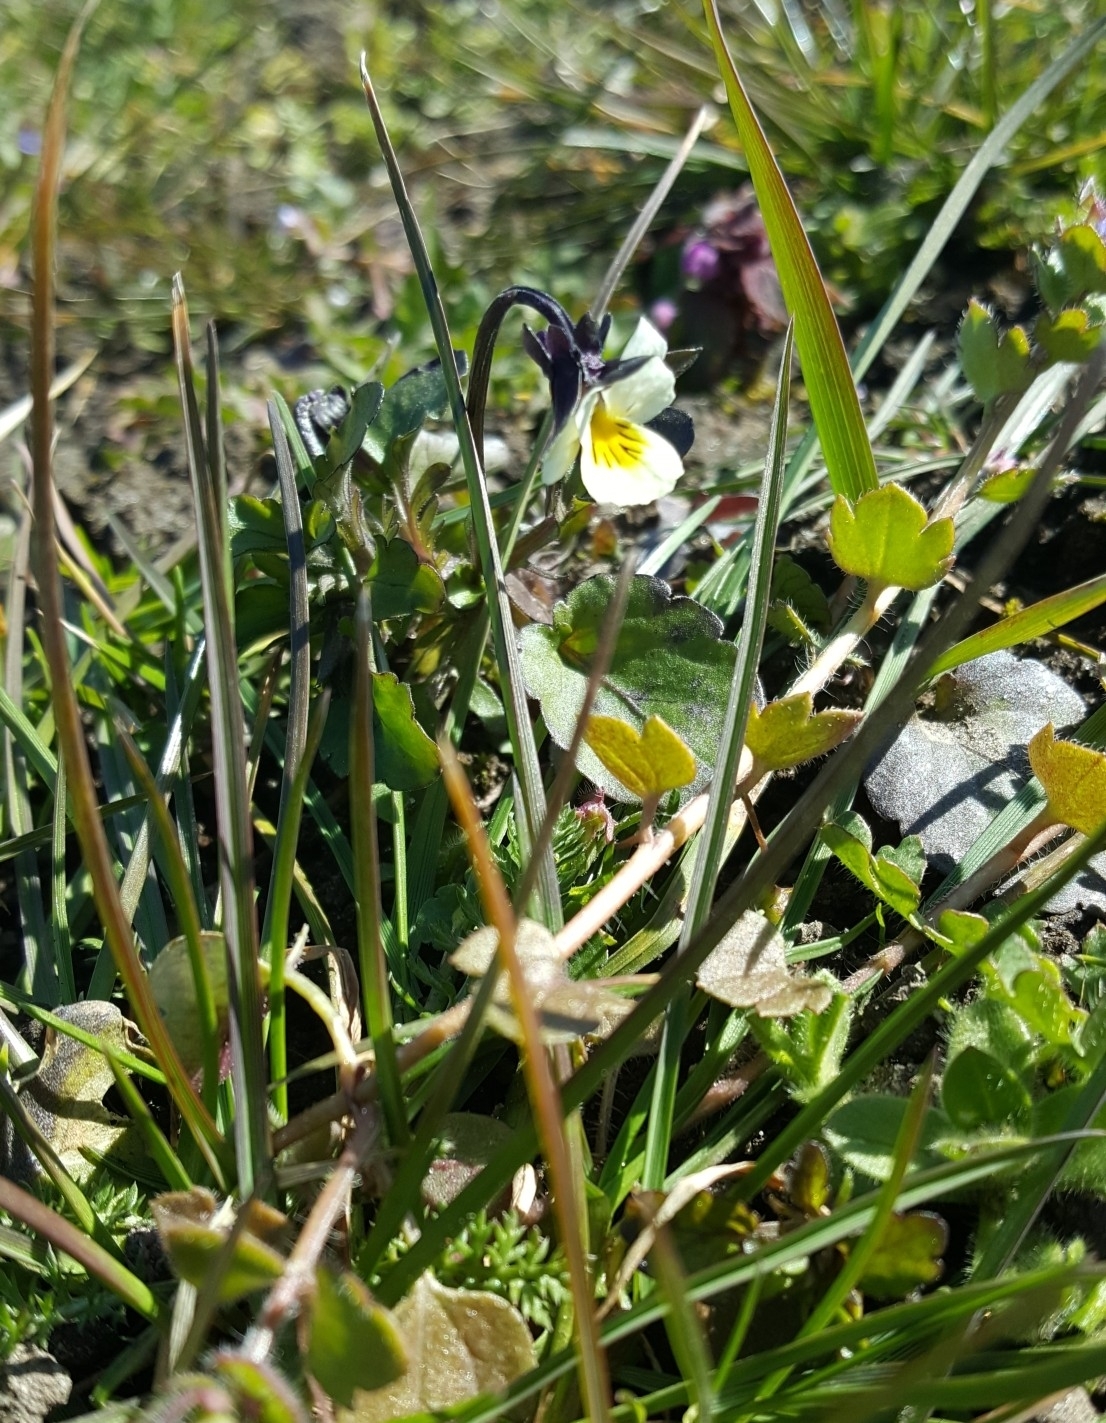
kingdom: Plantae
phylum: Tracheophyta
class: Magnoliopsida
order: Malpighiales
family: Violaceae
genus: Viola
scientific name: Viola arvensis
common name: Field pansy
